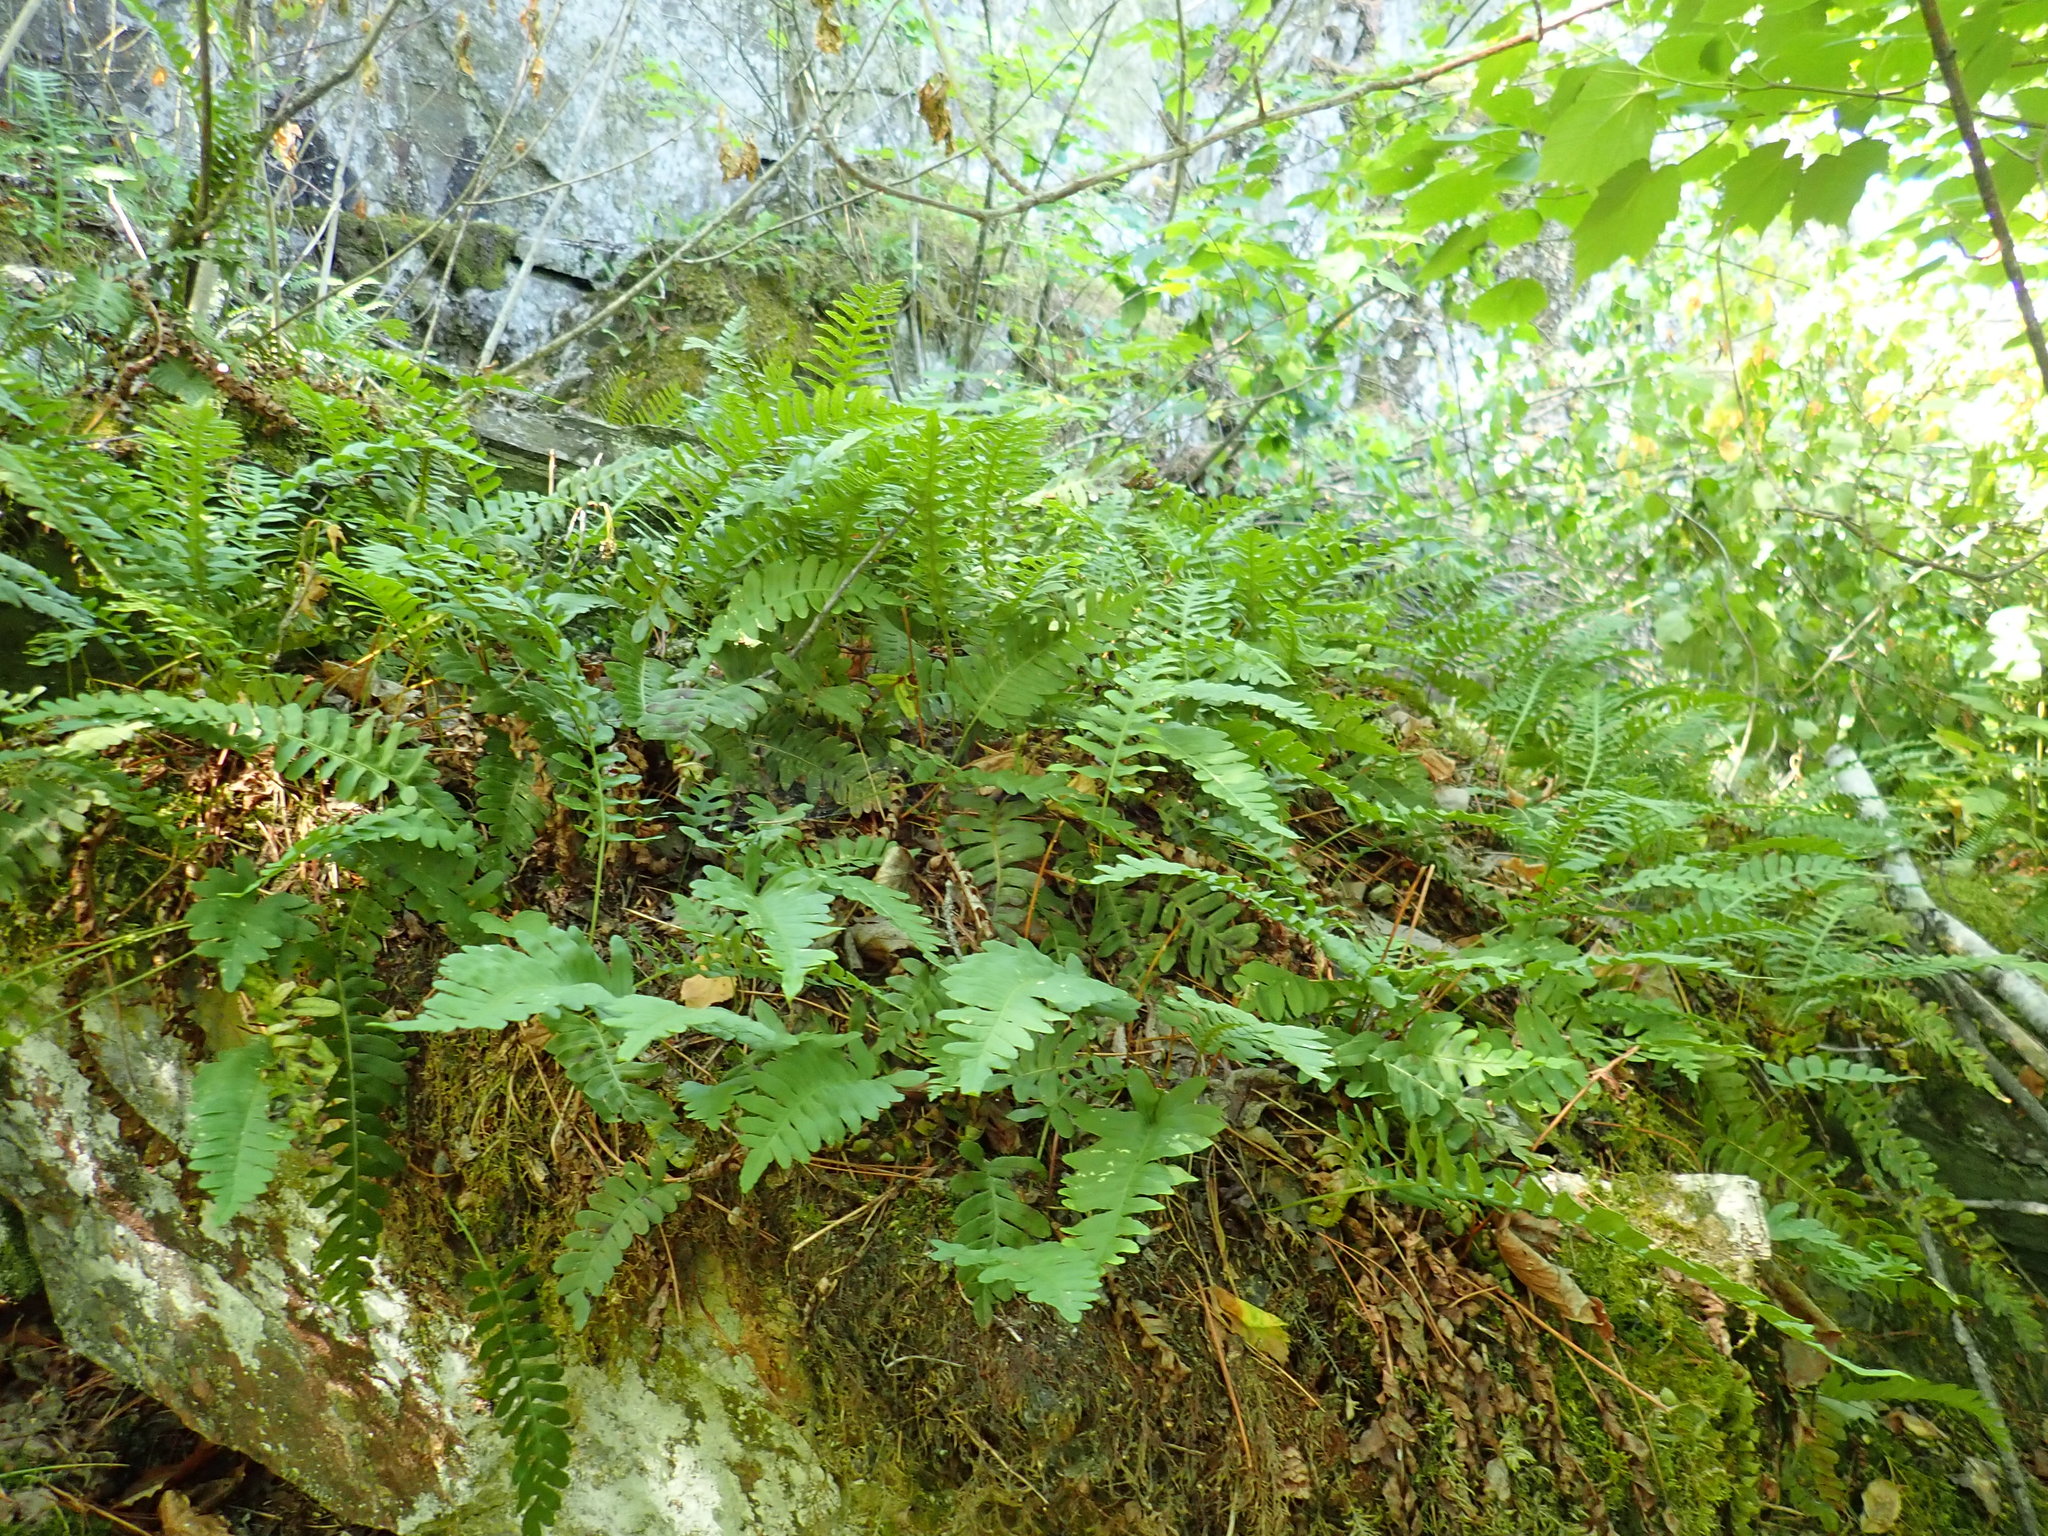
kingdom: Plantae
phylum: Tracheophyta
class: Polypodiopsida
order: Polypodiales
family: Polypodiaceae
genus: Polypodium
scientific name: Polypodium virginianum
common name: American wall fern
